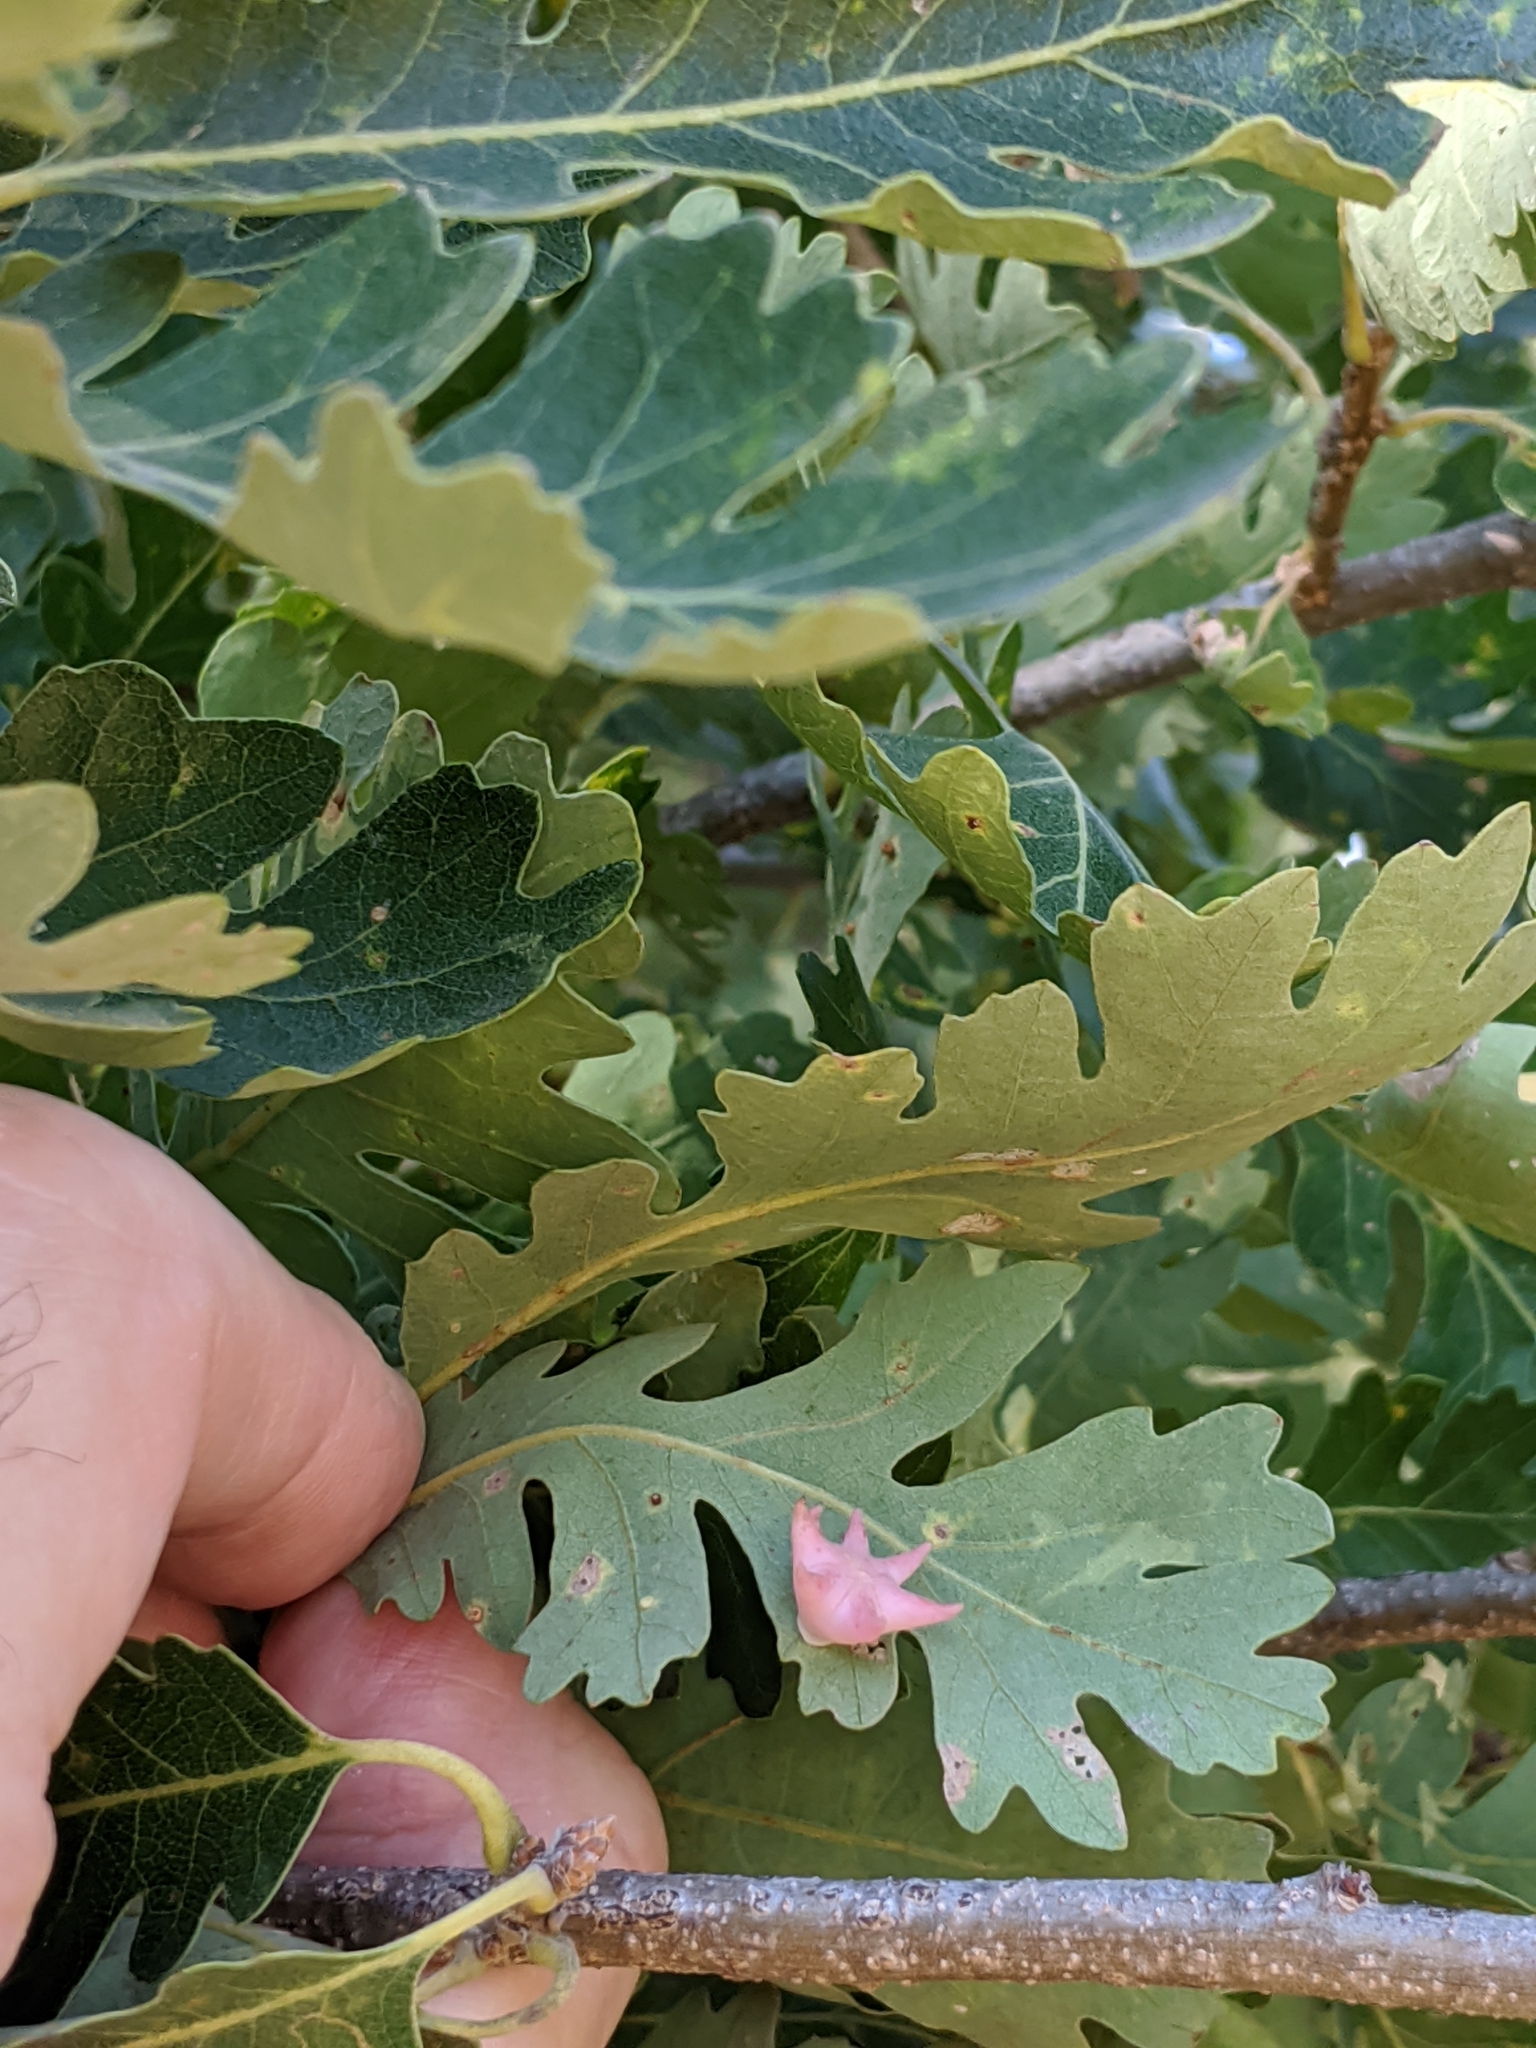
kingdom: Plantae
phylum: Tracheophyta
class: Magnoliopsida
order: Fagales
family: Fagaceae
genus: Quercus
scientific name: Quercus lobata
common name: Valley oak
